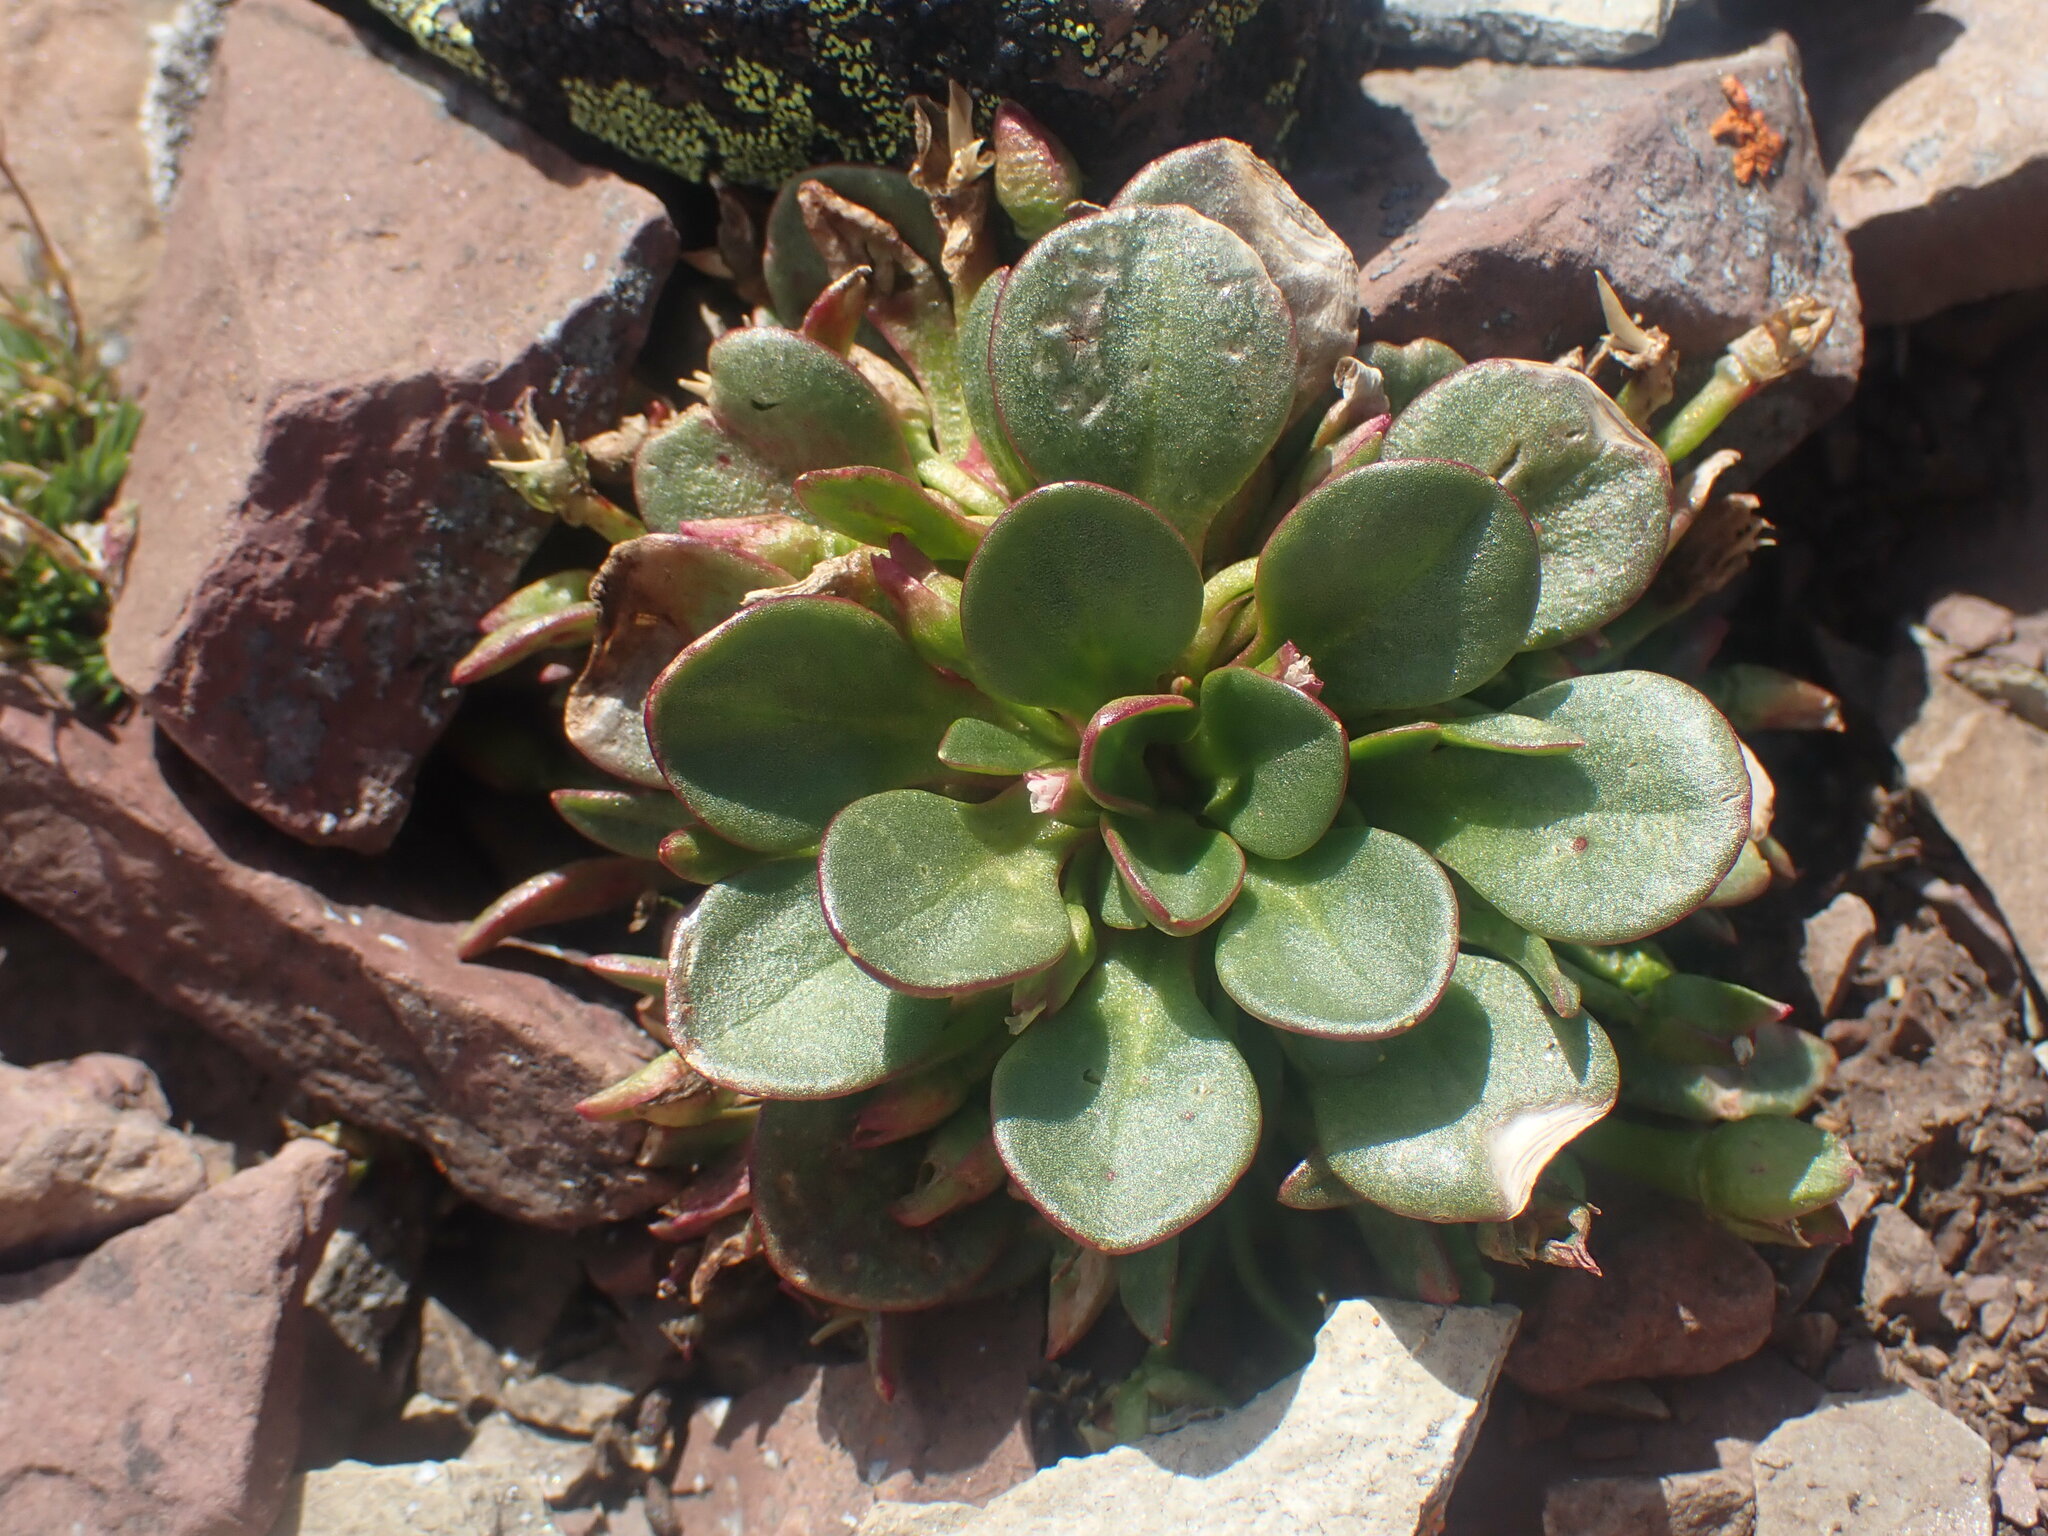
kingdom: Plantae
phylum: Tracheophyta
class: Magnoliopsida
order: Caryophyllales
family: Montiaceae
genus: Claytonia
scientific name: Claytonia megarhiza
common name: Alpine spring beauty
